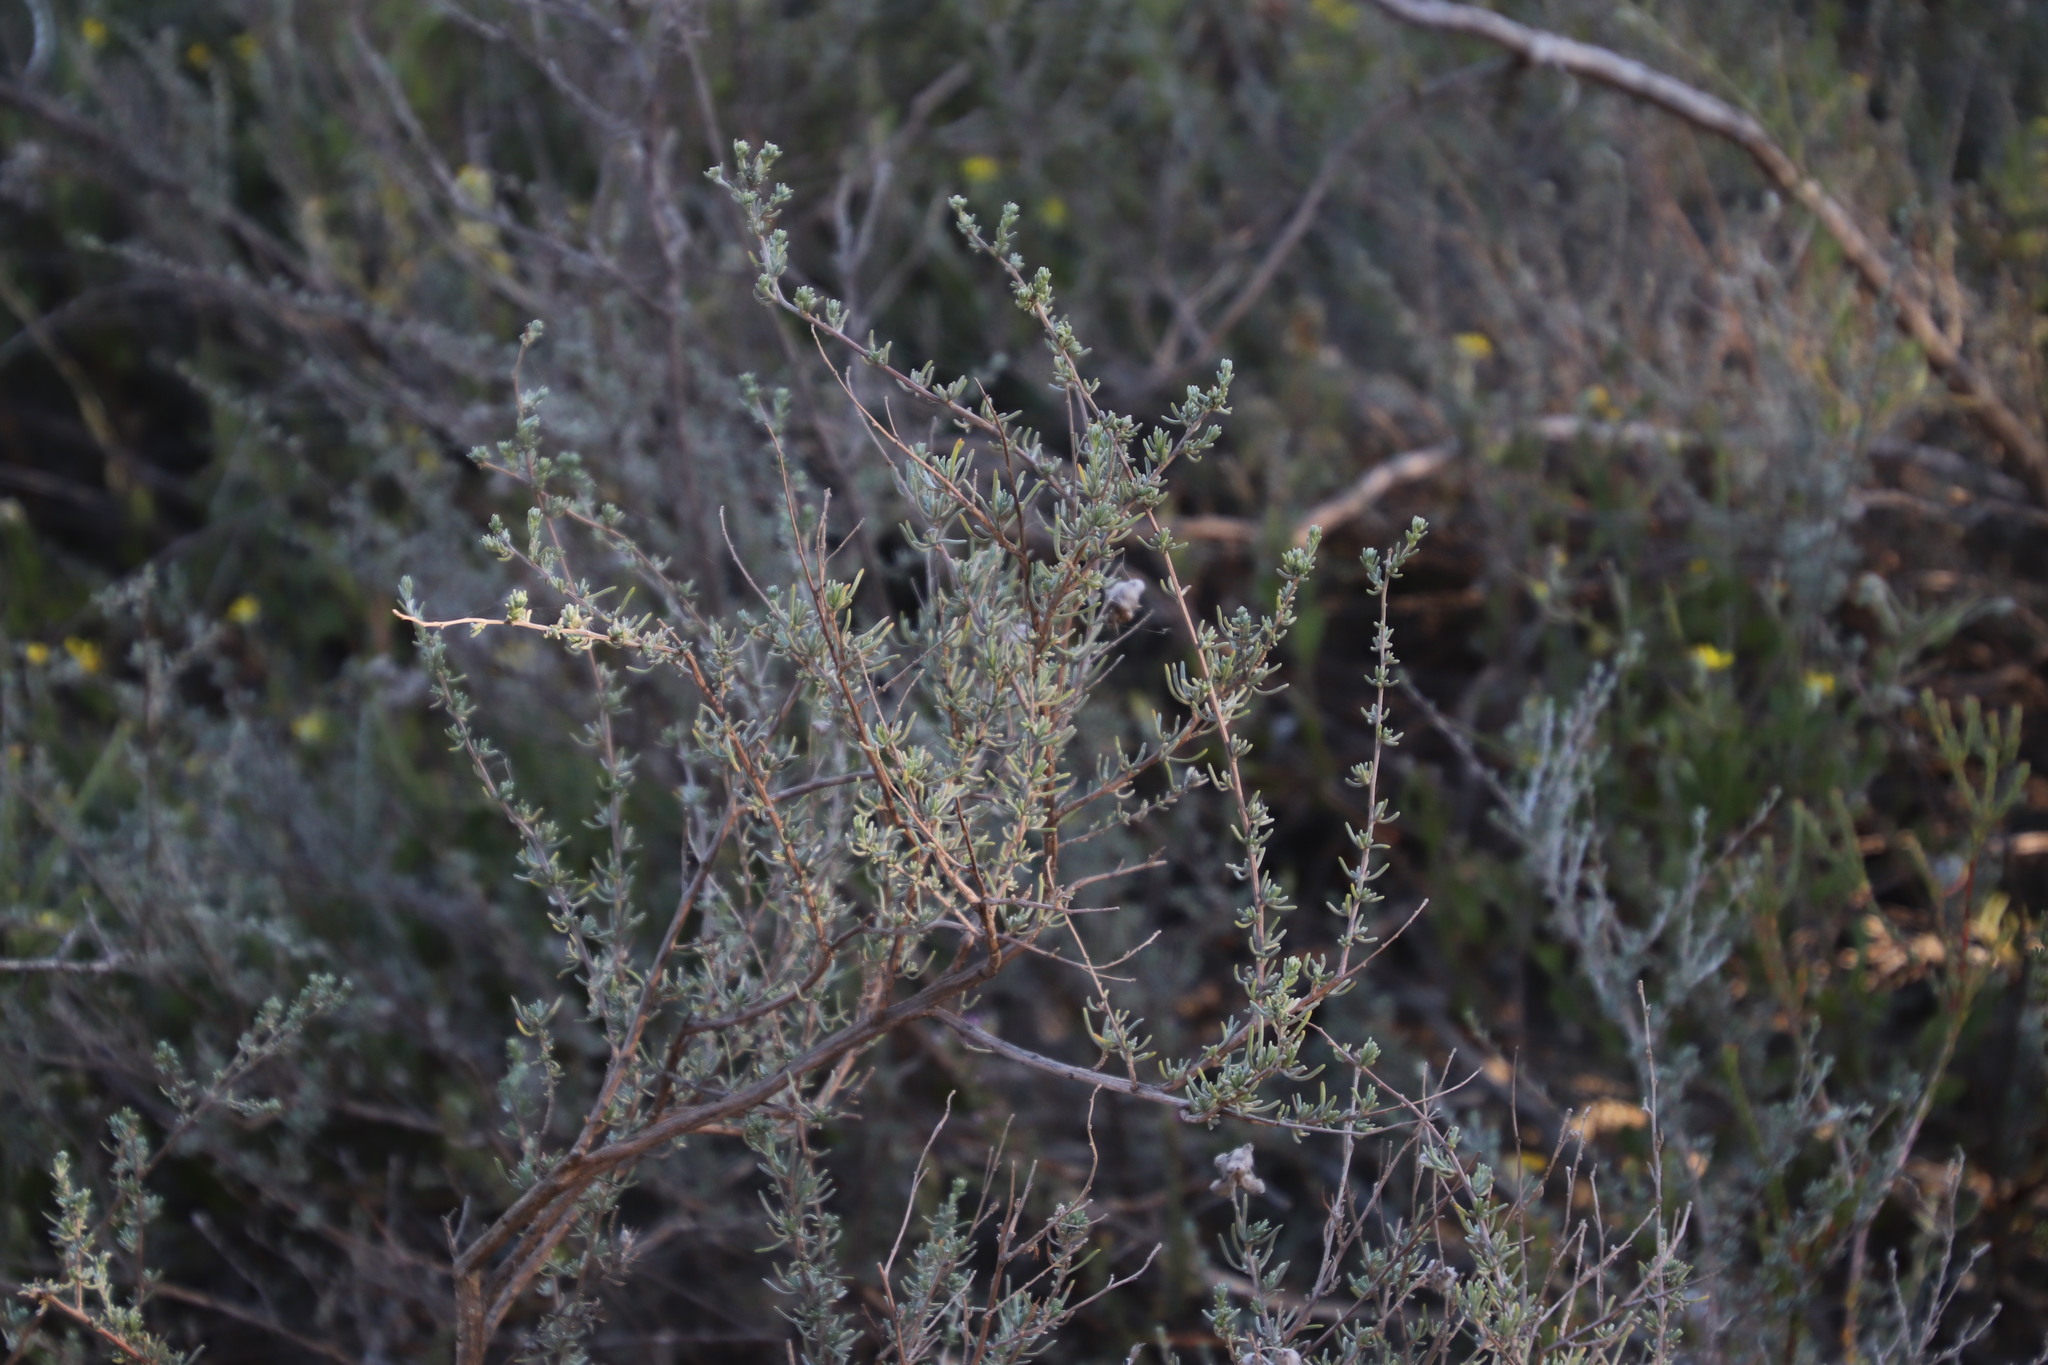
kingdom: Plantae
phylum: Tracheophyta
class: Magnoliopsida
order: Asterales
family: Asteraceae
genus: Eriocephalus
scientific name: Eriocephalus africanus
